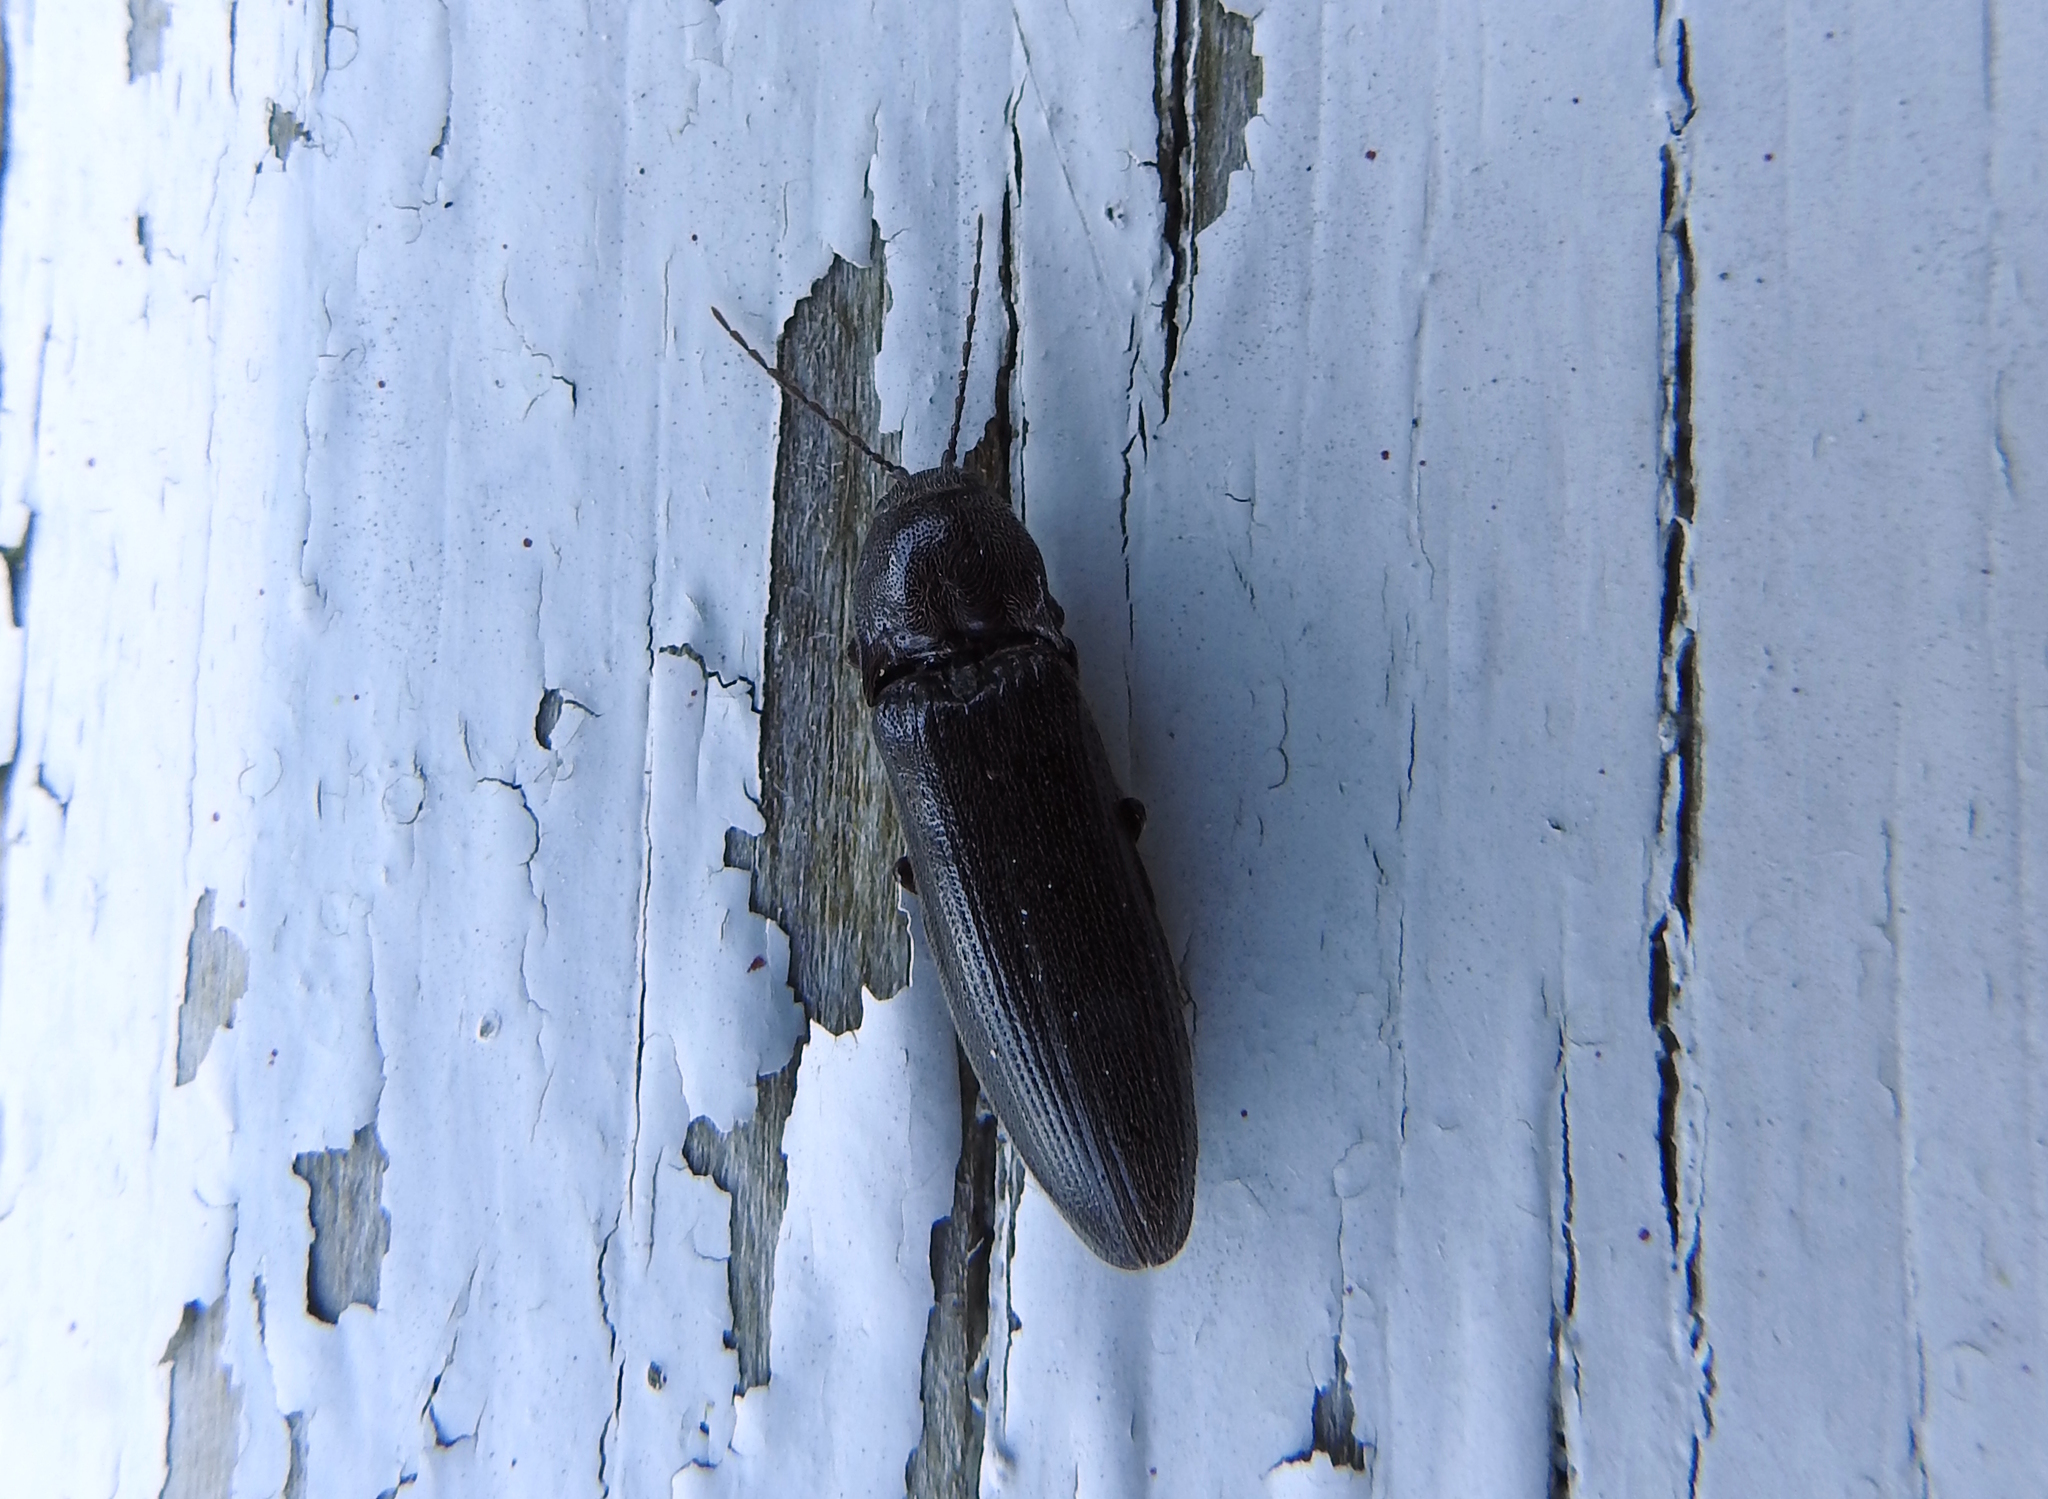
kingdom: Animalia
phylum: Arthropoda
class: Insecta
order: Coleoptera
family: Elateridae
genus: Melanotus
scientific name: Melanotus castanipes
